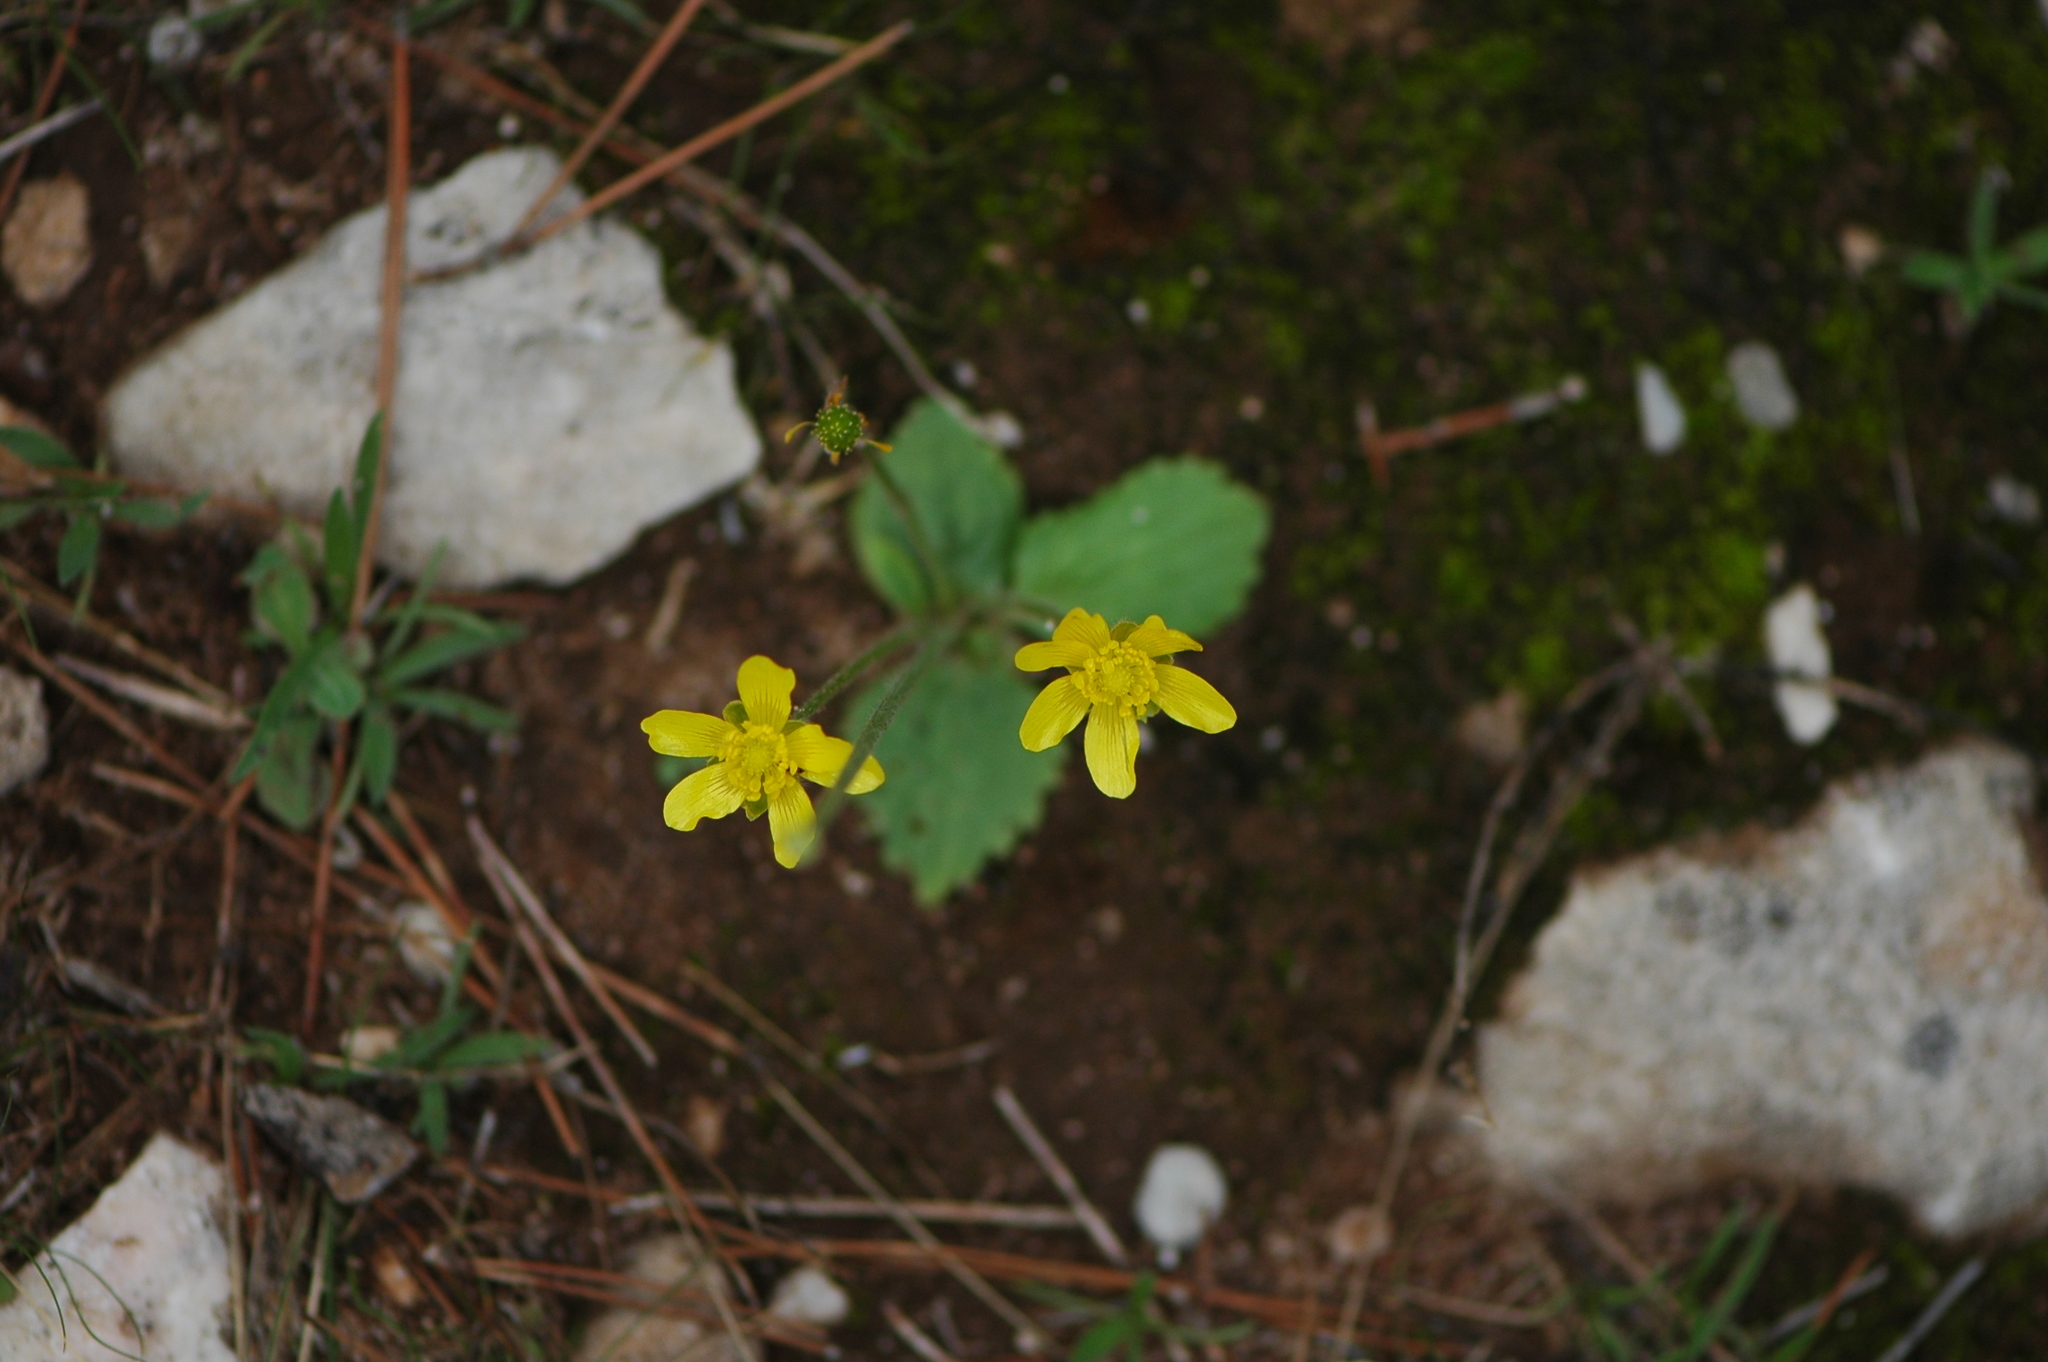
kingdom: Plantae
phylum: Tracheophyta
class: Magnoliopsida
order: Ranunculales
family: Ranunculaceae
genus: Ranunculus
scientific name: Ranunculus bullatus
